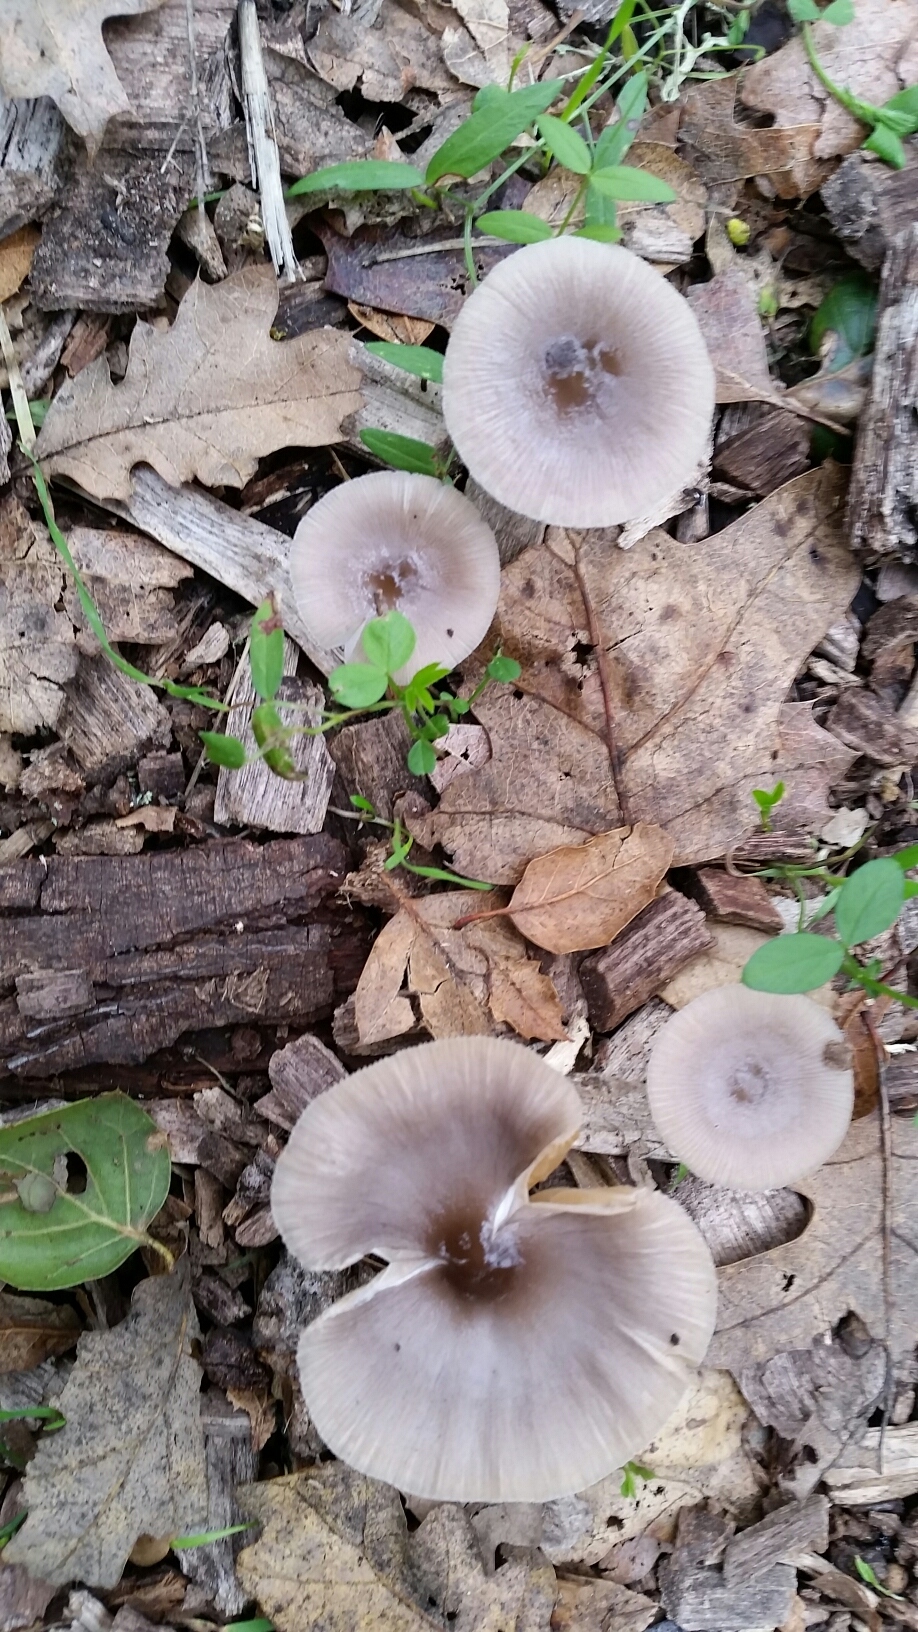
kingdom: Fungi
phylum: Basidiomycota
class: Agaricomycetes
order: Agaricales
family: Bolbitiaceae
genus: Bolbitius
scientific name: Bolbitius reticulatus
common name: Netted fieldcap
